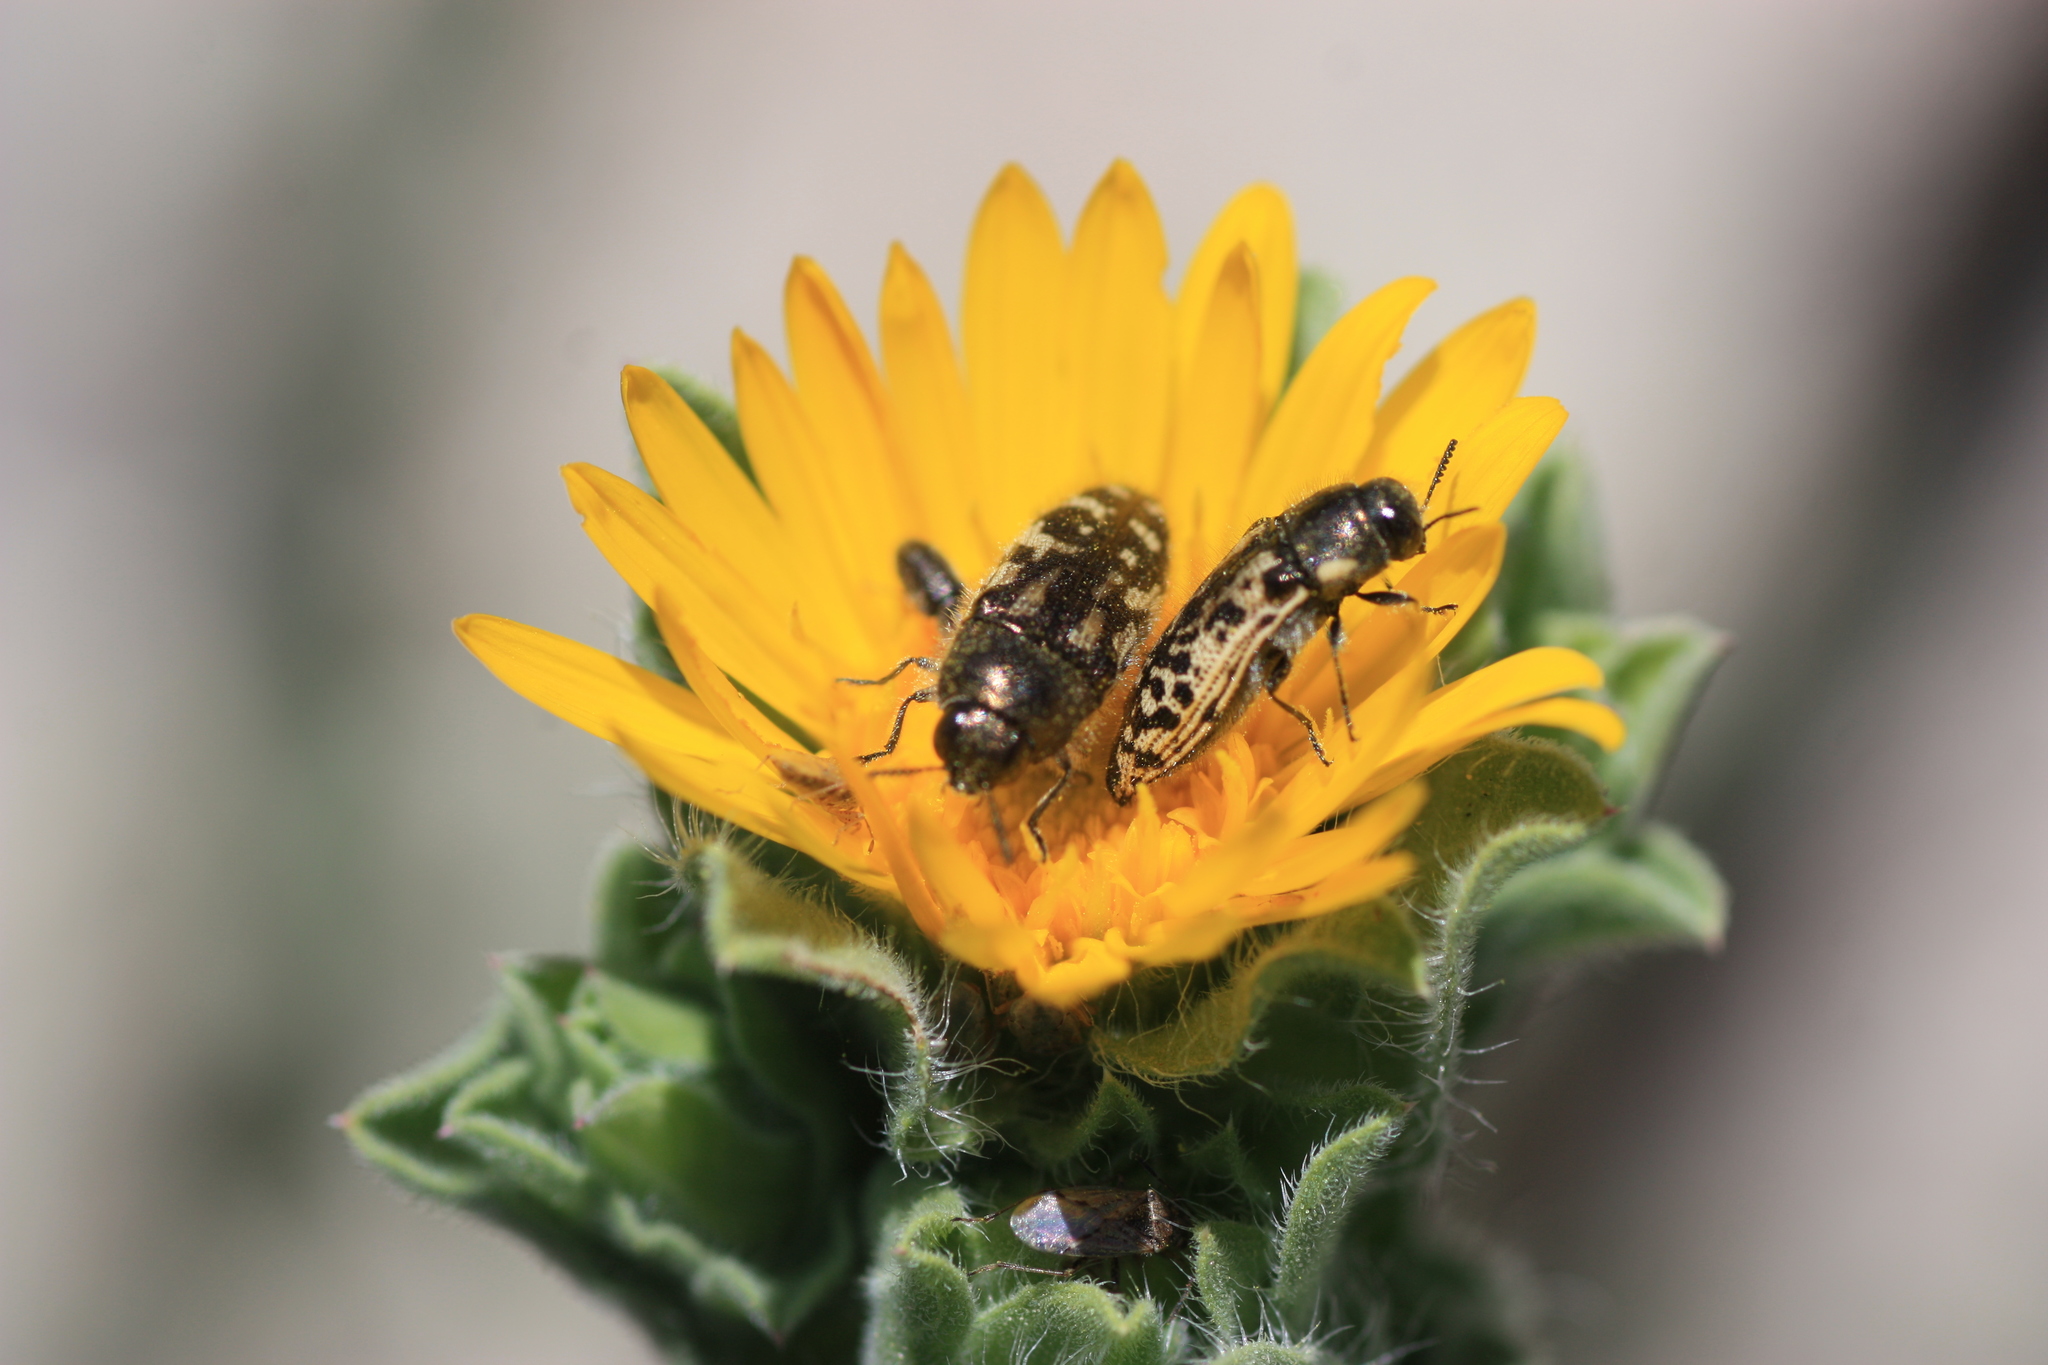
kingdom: Animalia
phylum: Arthropoda
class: Insecta
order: Coleoptera
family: Buprestidae
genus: Acmaeodera
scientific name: Acmaeodera mixta
